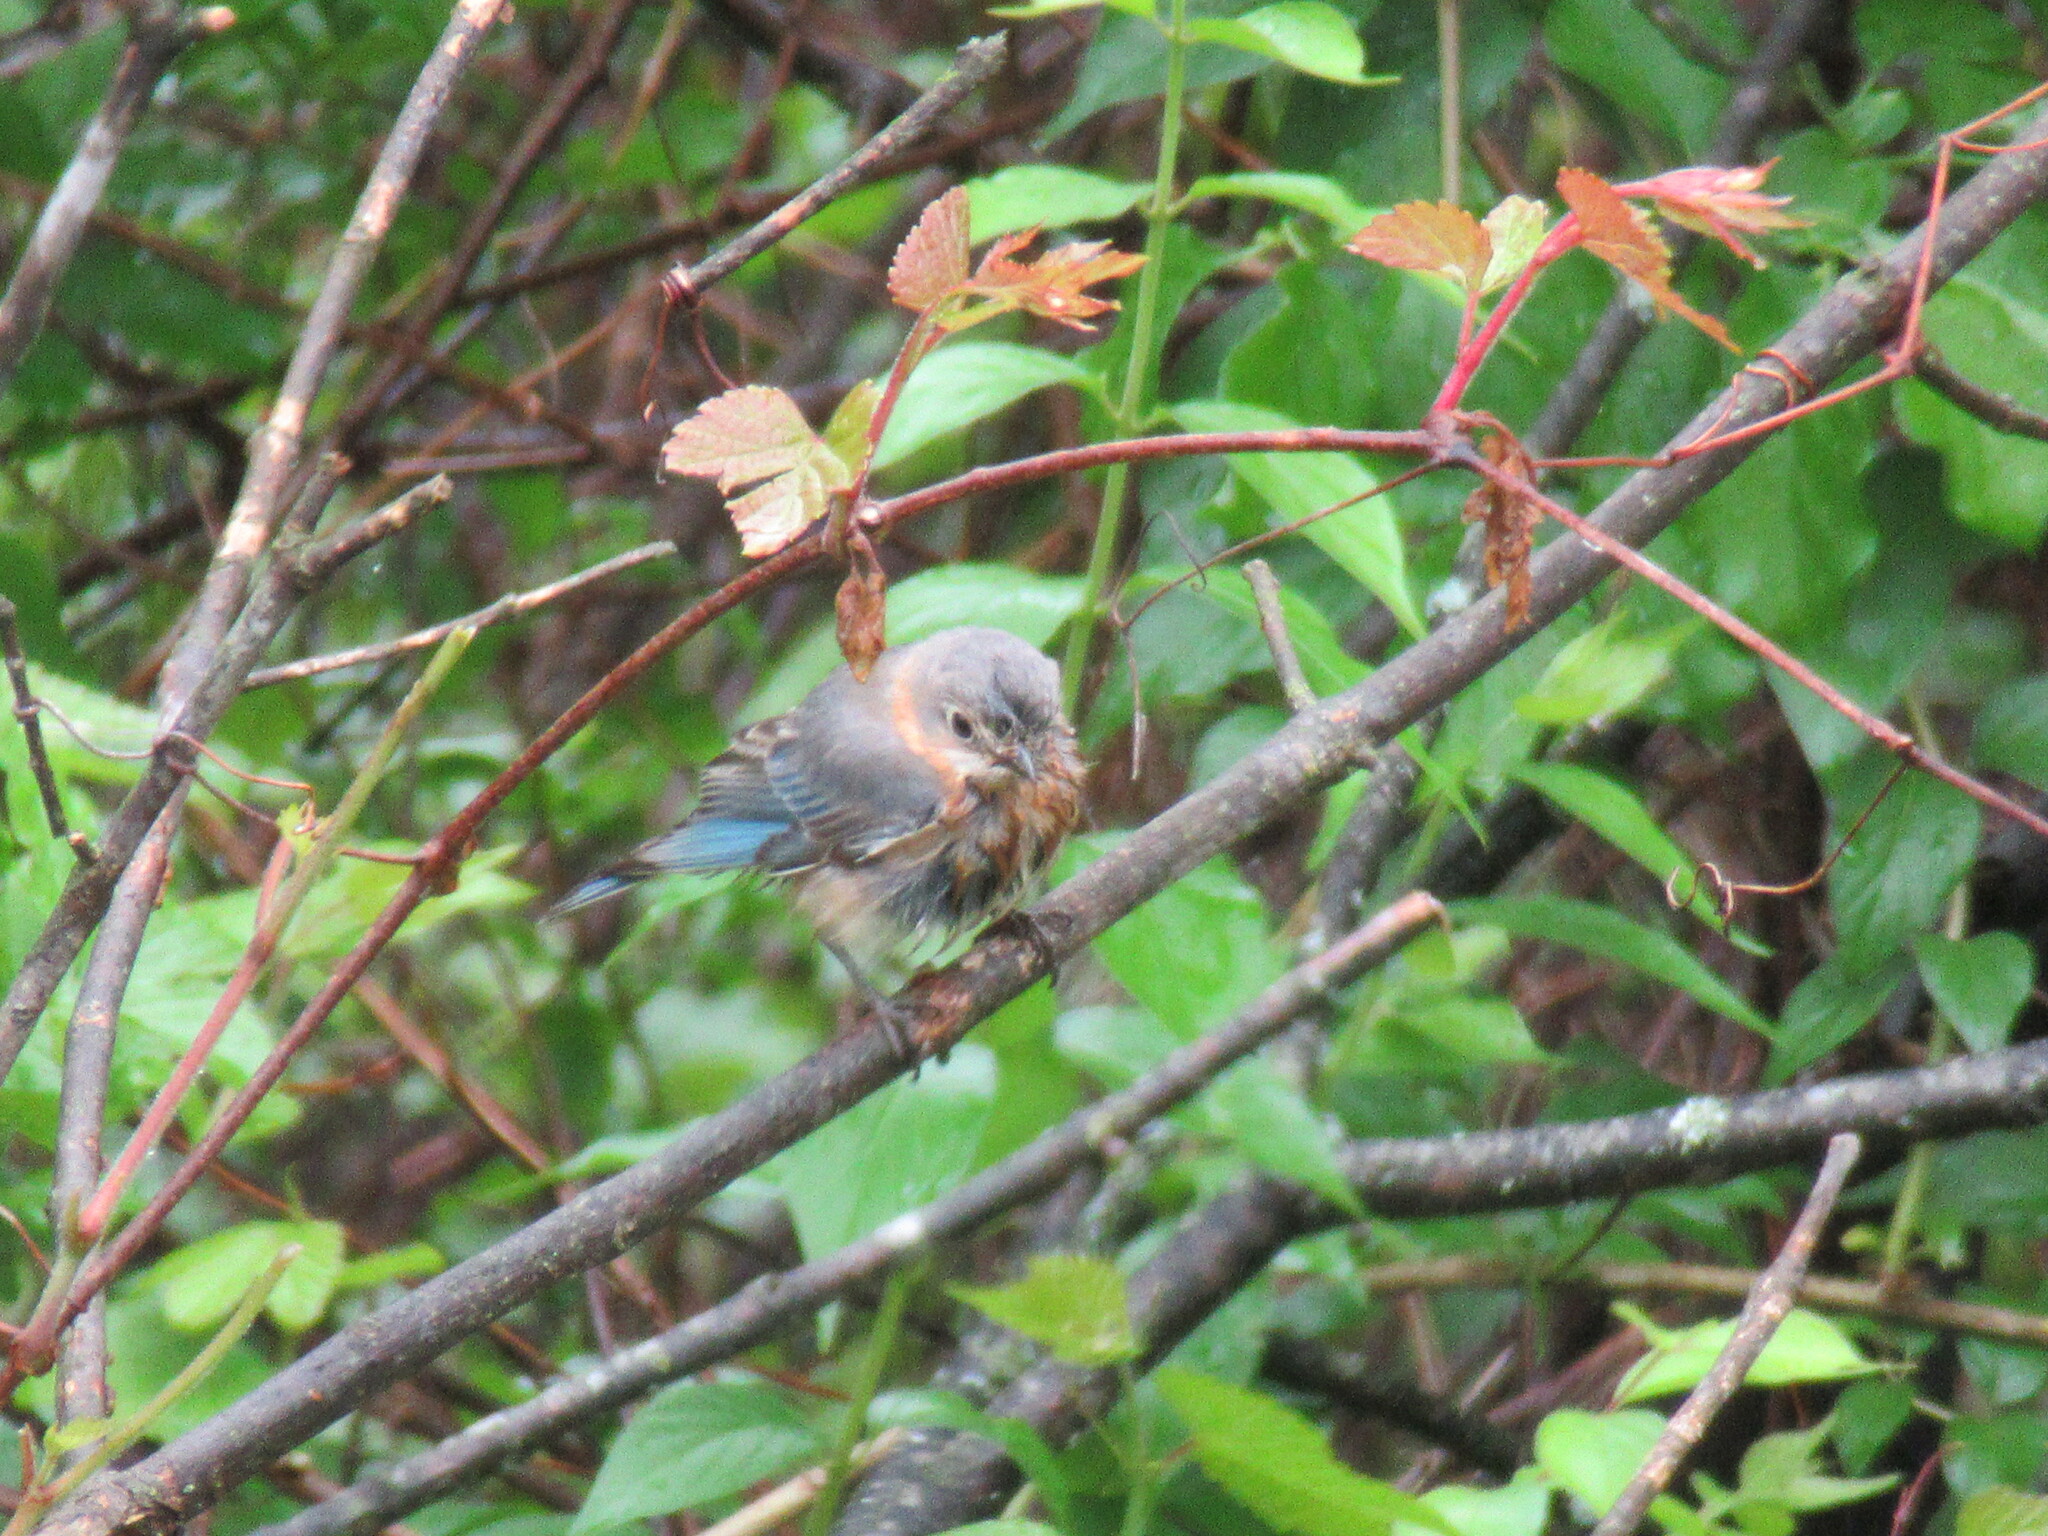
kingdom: Animalia
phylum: Chordata
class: Aves
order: Passeriformes
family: Turdidae
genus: Sialia
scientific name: Sialia sialis
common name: Eastern bluebird
